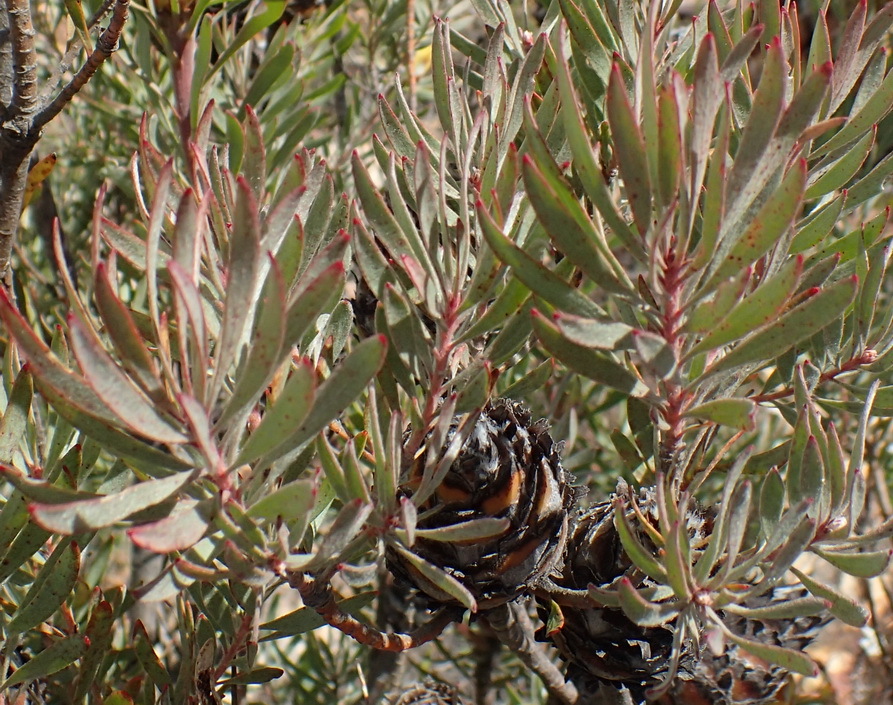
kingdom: Plantae
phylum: Tracheophyta
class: Magnoliopsida
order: Proteales
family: Proteaceae
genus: Leucadendron
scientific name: Leucadendron rubrum
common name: Spinning top
